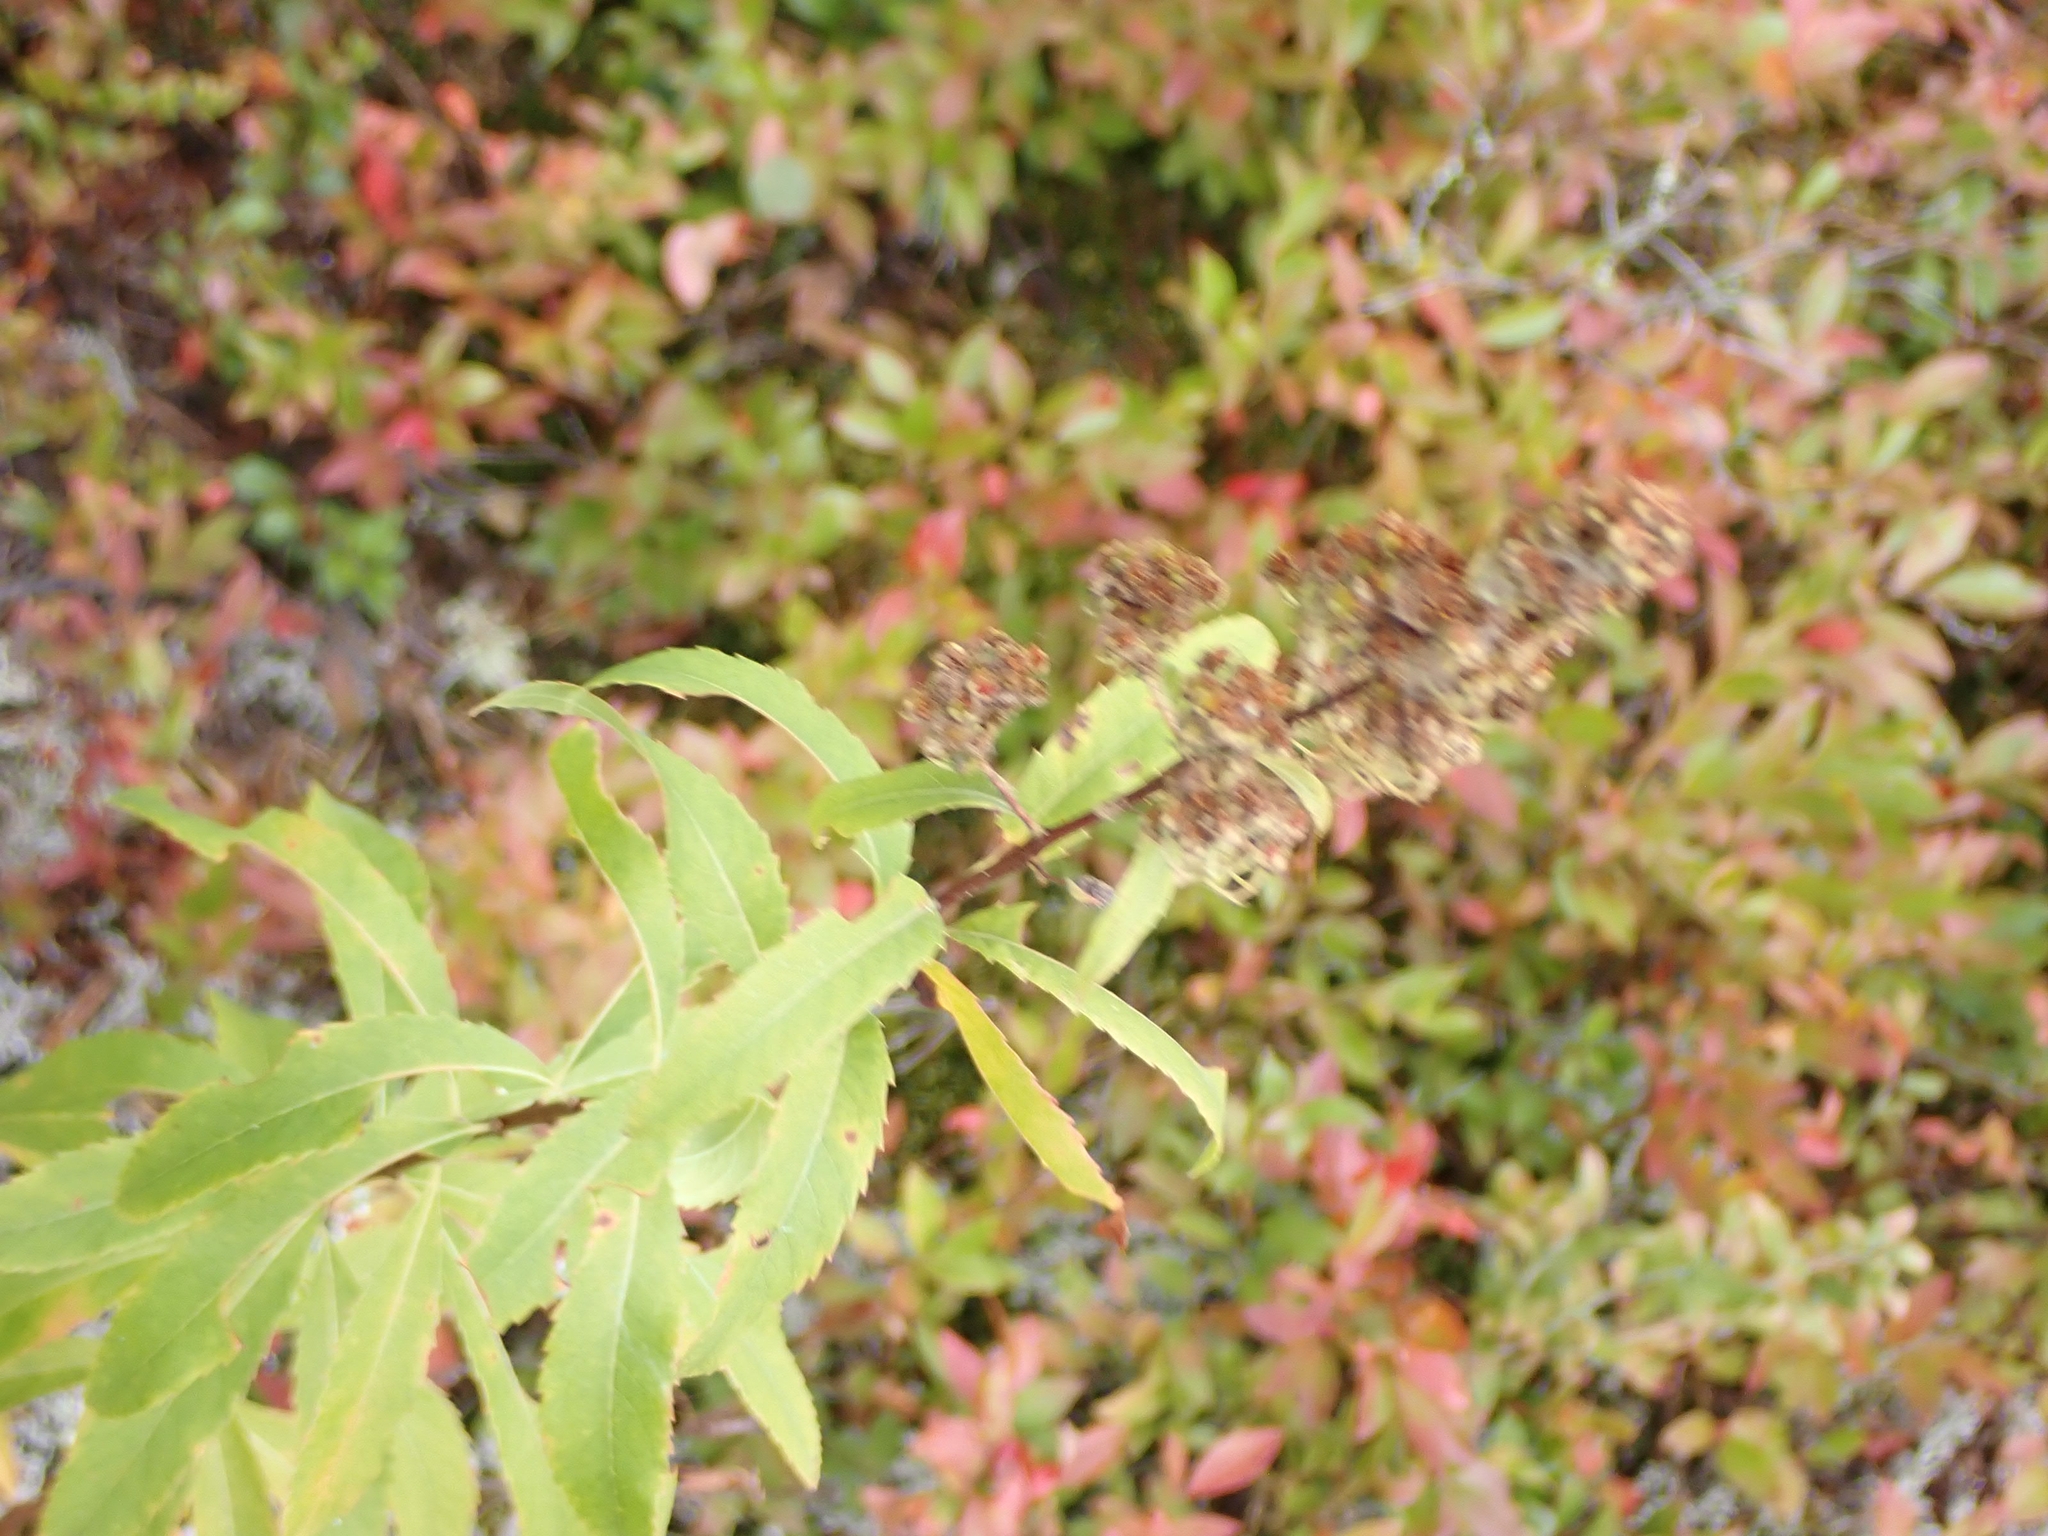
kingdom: Plantae
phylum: Tracheophyta
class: Magnoliopsida
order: Rosales
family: Rosaceae
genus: Spiraea
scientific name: Spiraea alba
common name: Pale bridewort
